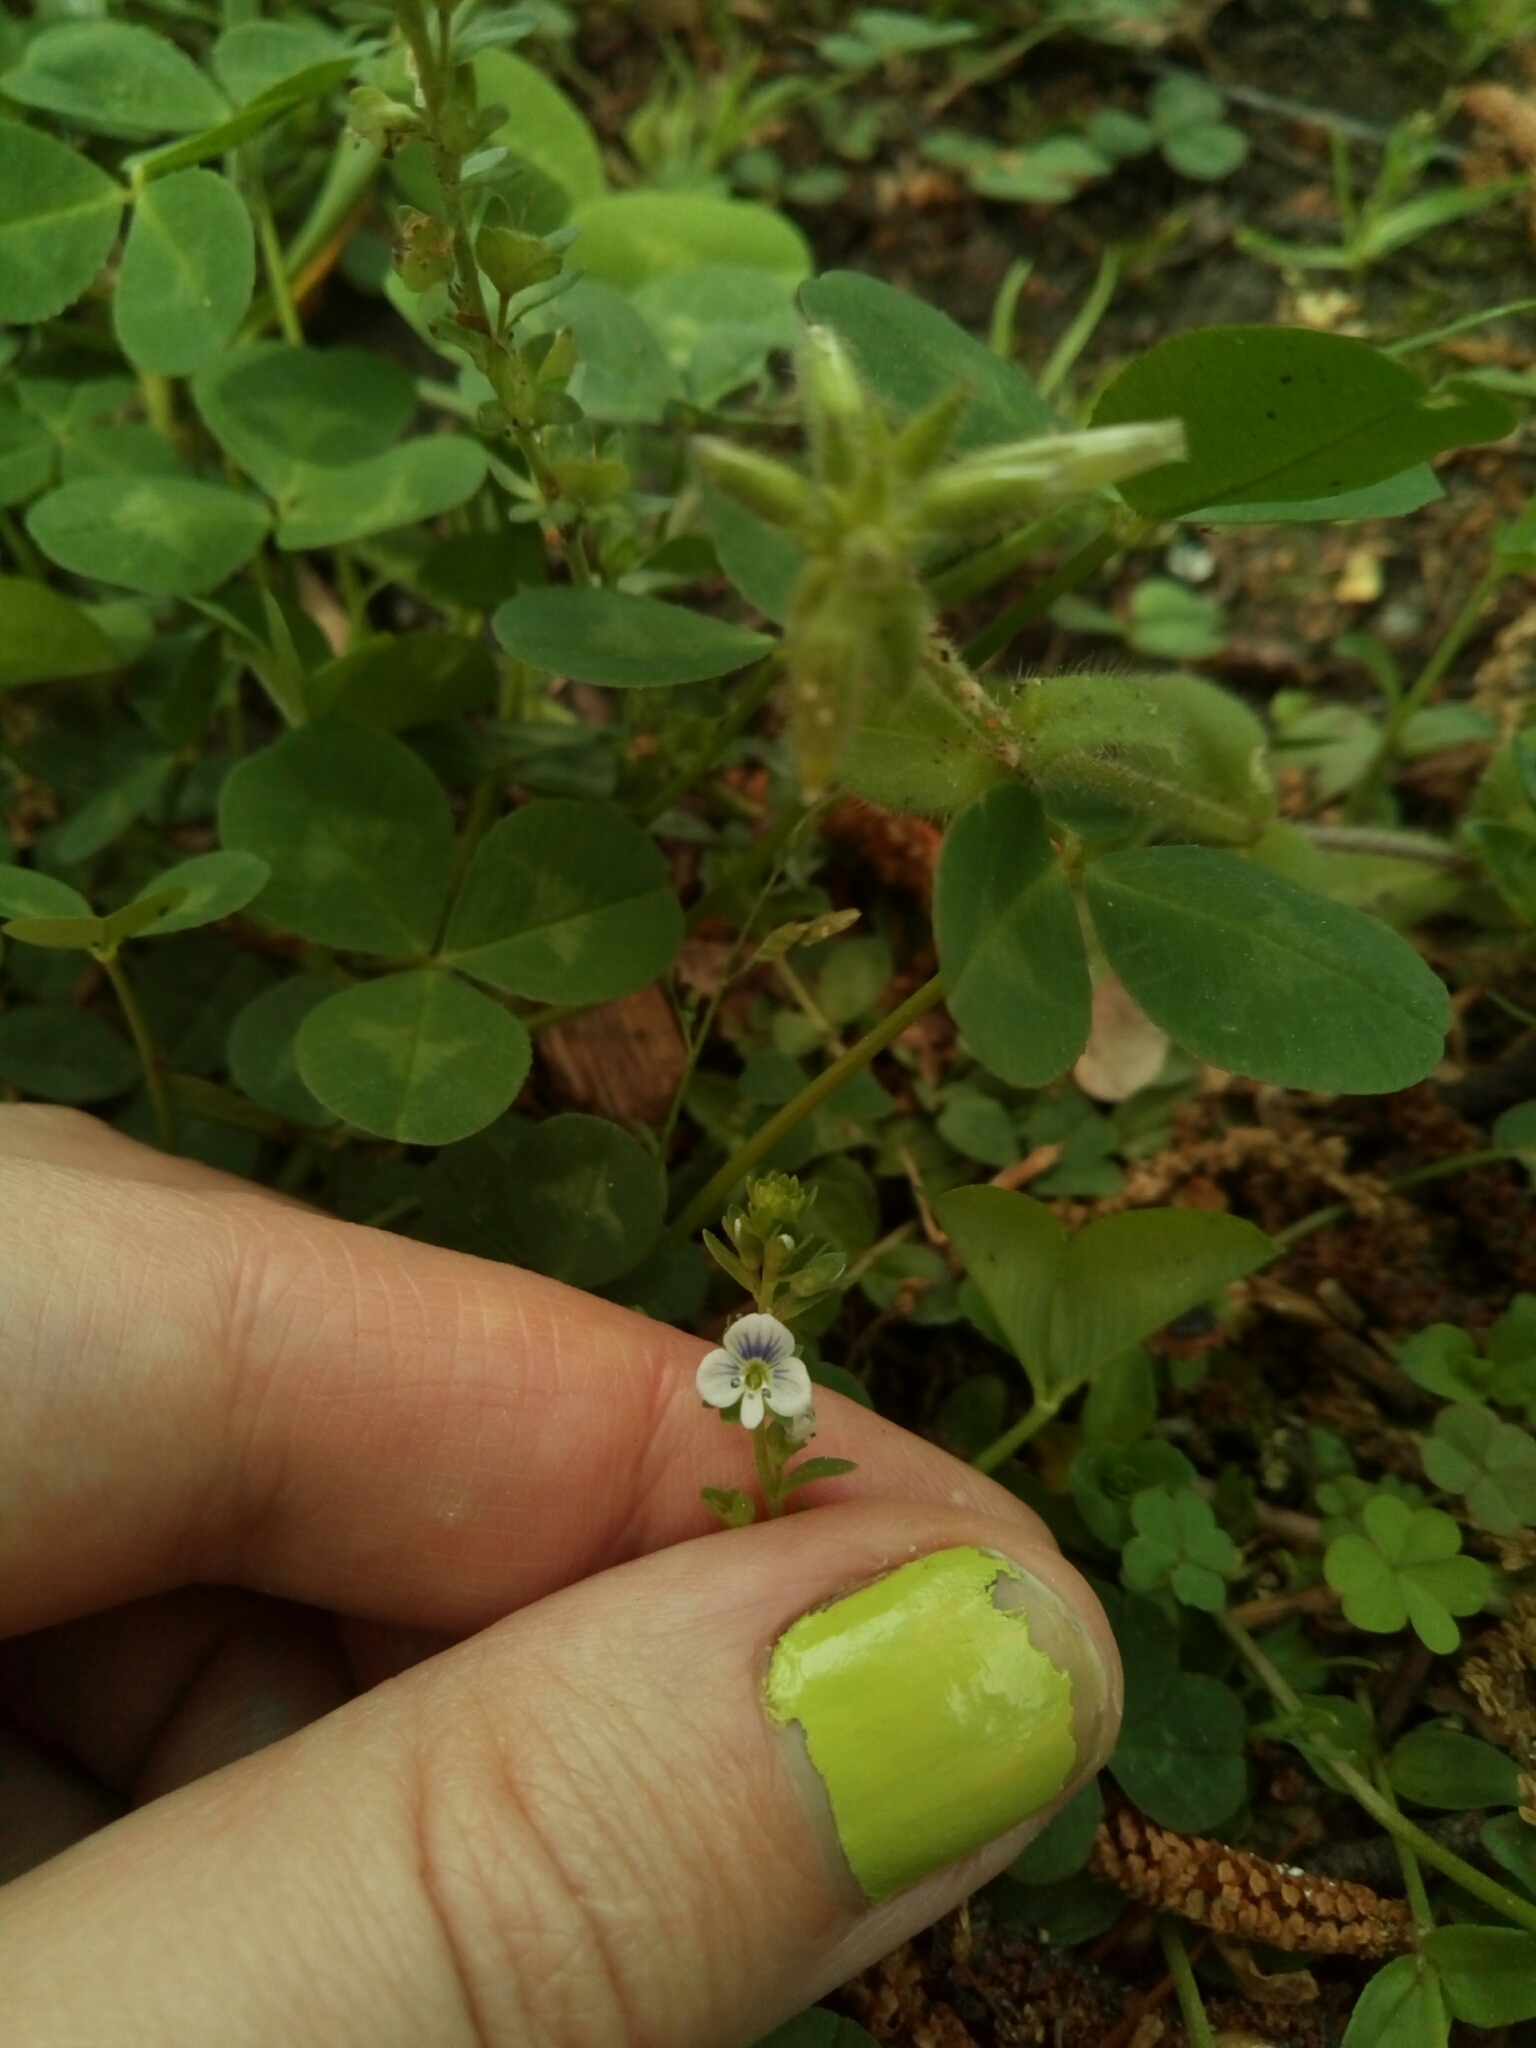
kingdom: Plantae
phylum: Tracheophyta
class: Magnoliopsida
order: Lamiales
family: Plantaginaceae
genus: Veronica
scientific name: Veronica serpyllifolia
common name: Thyme-leaved speedwell
